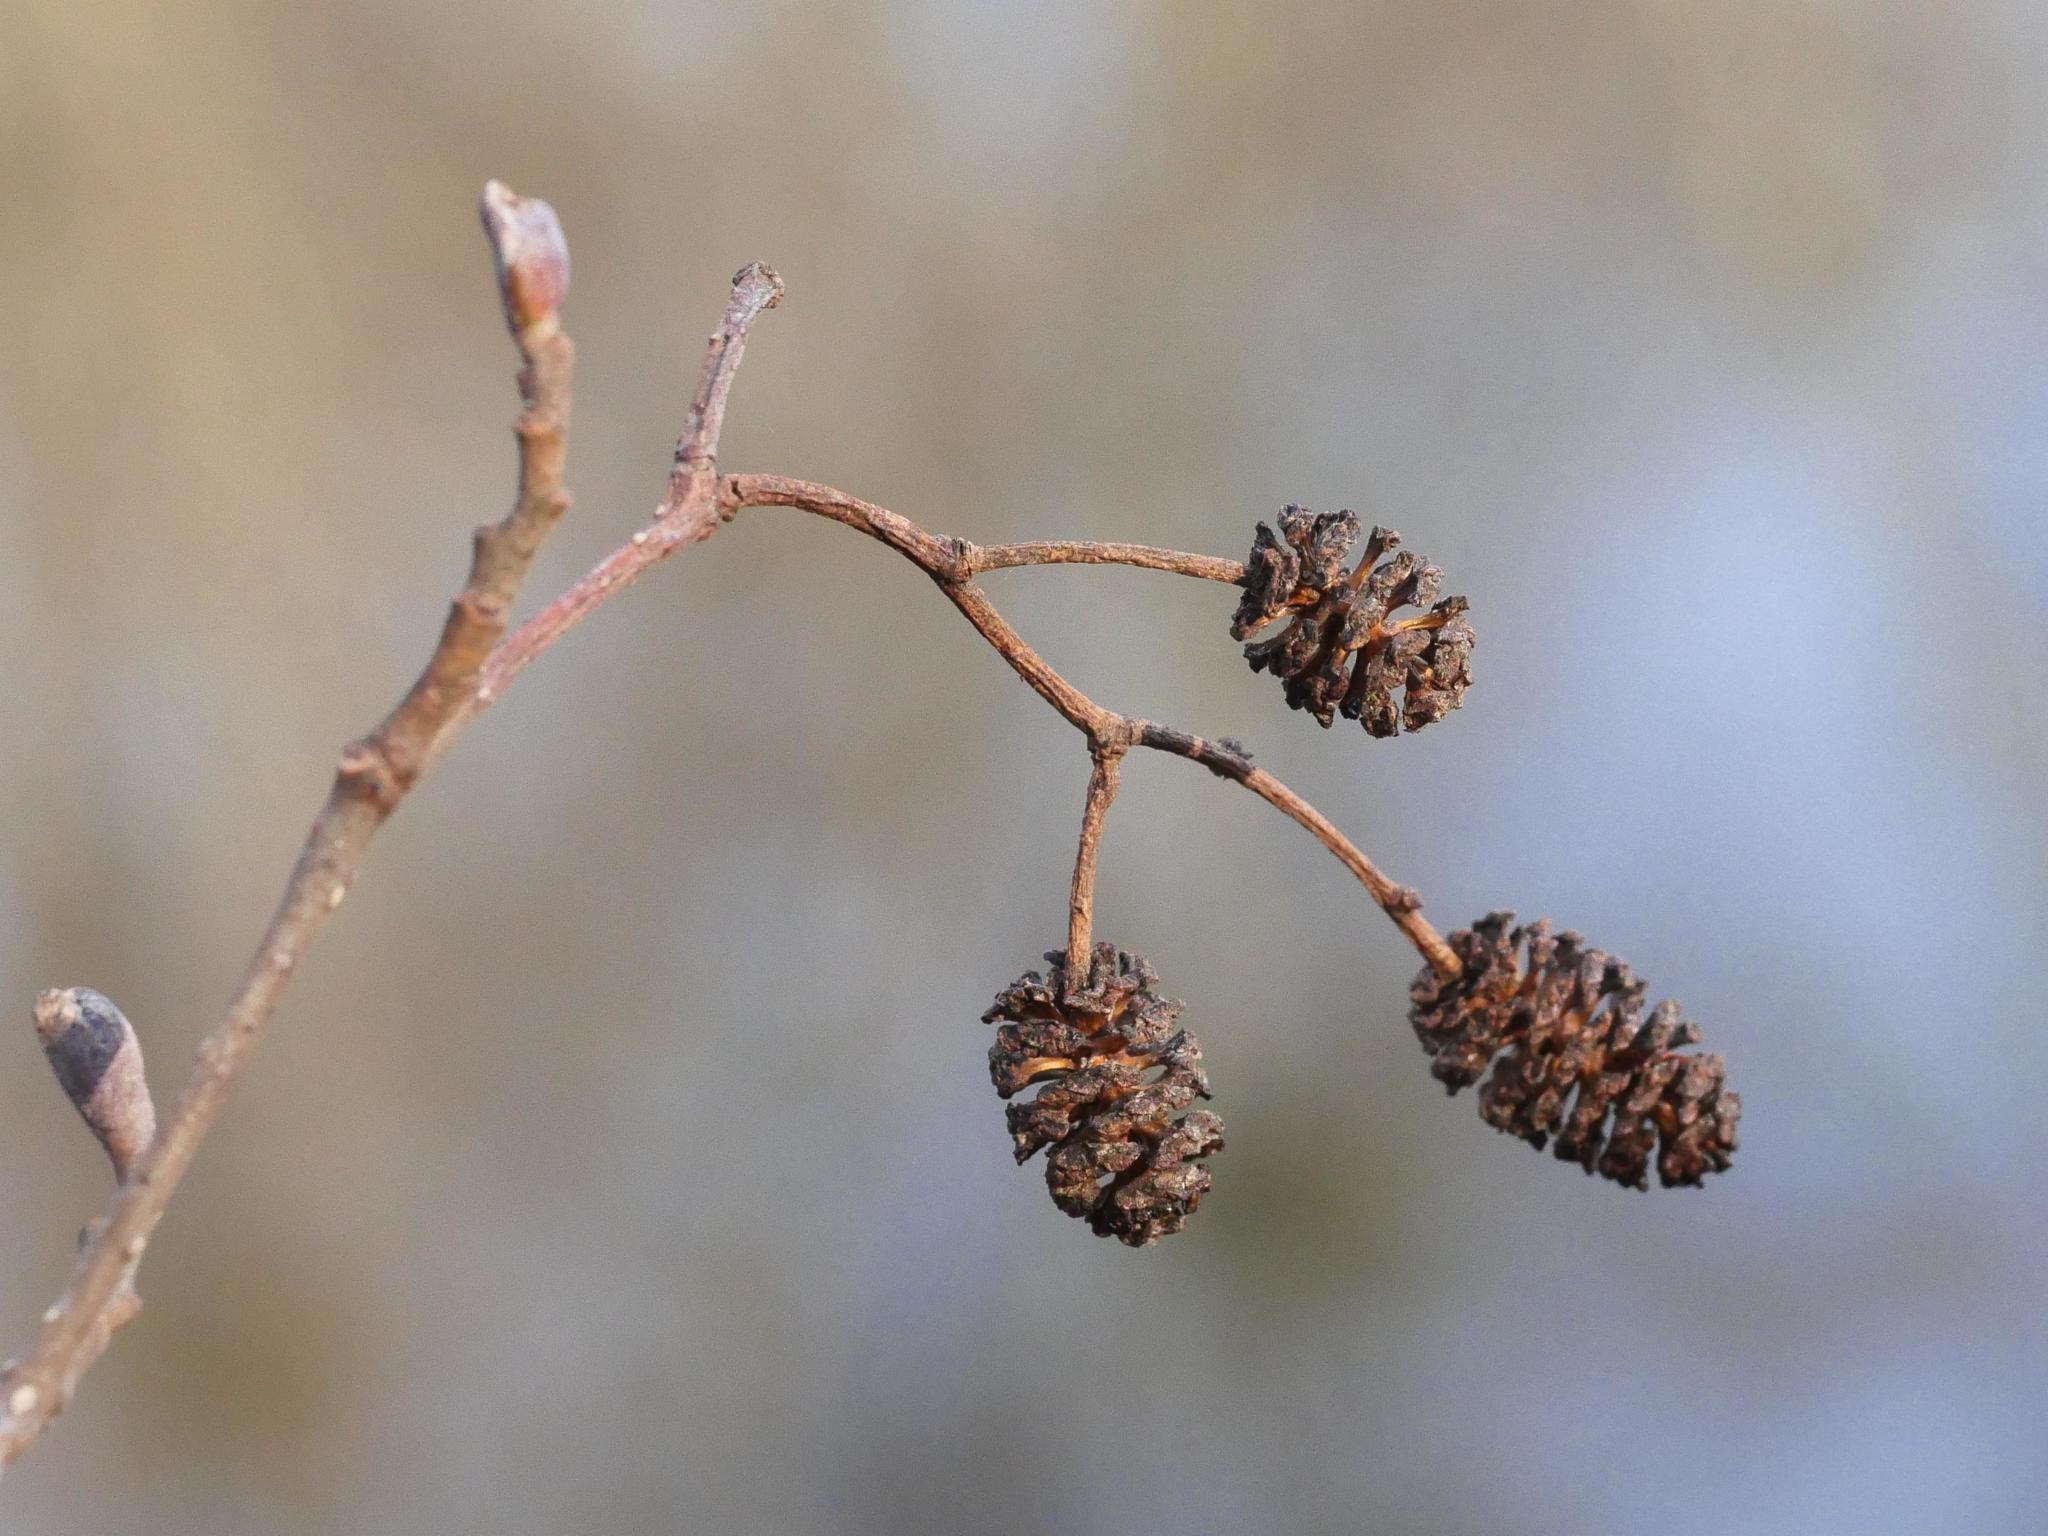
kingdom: Plantae
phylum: Tracheophyta
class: Magnoliopsida
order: Fagales
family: Betulaceae
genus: Alnus
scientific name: Alnus glutinosa
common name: Black alder
